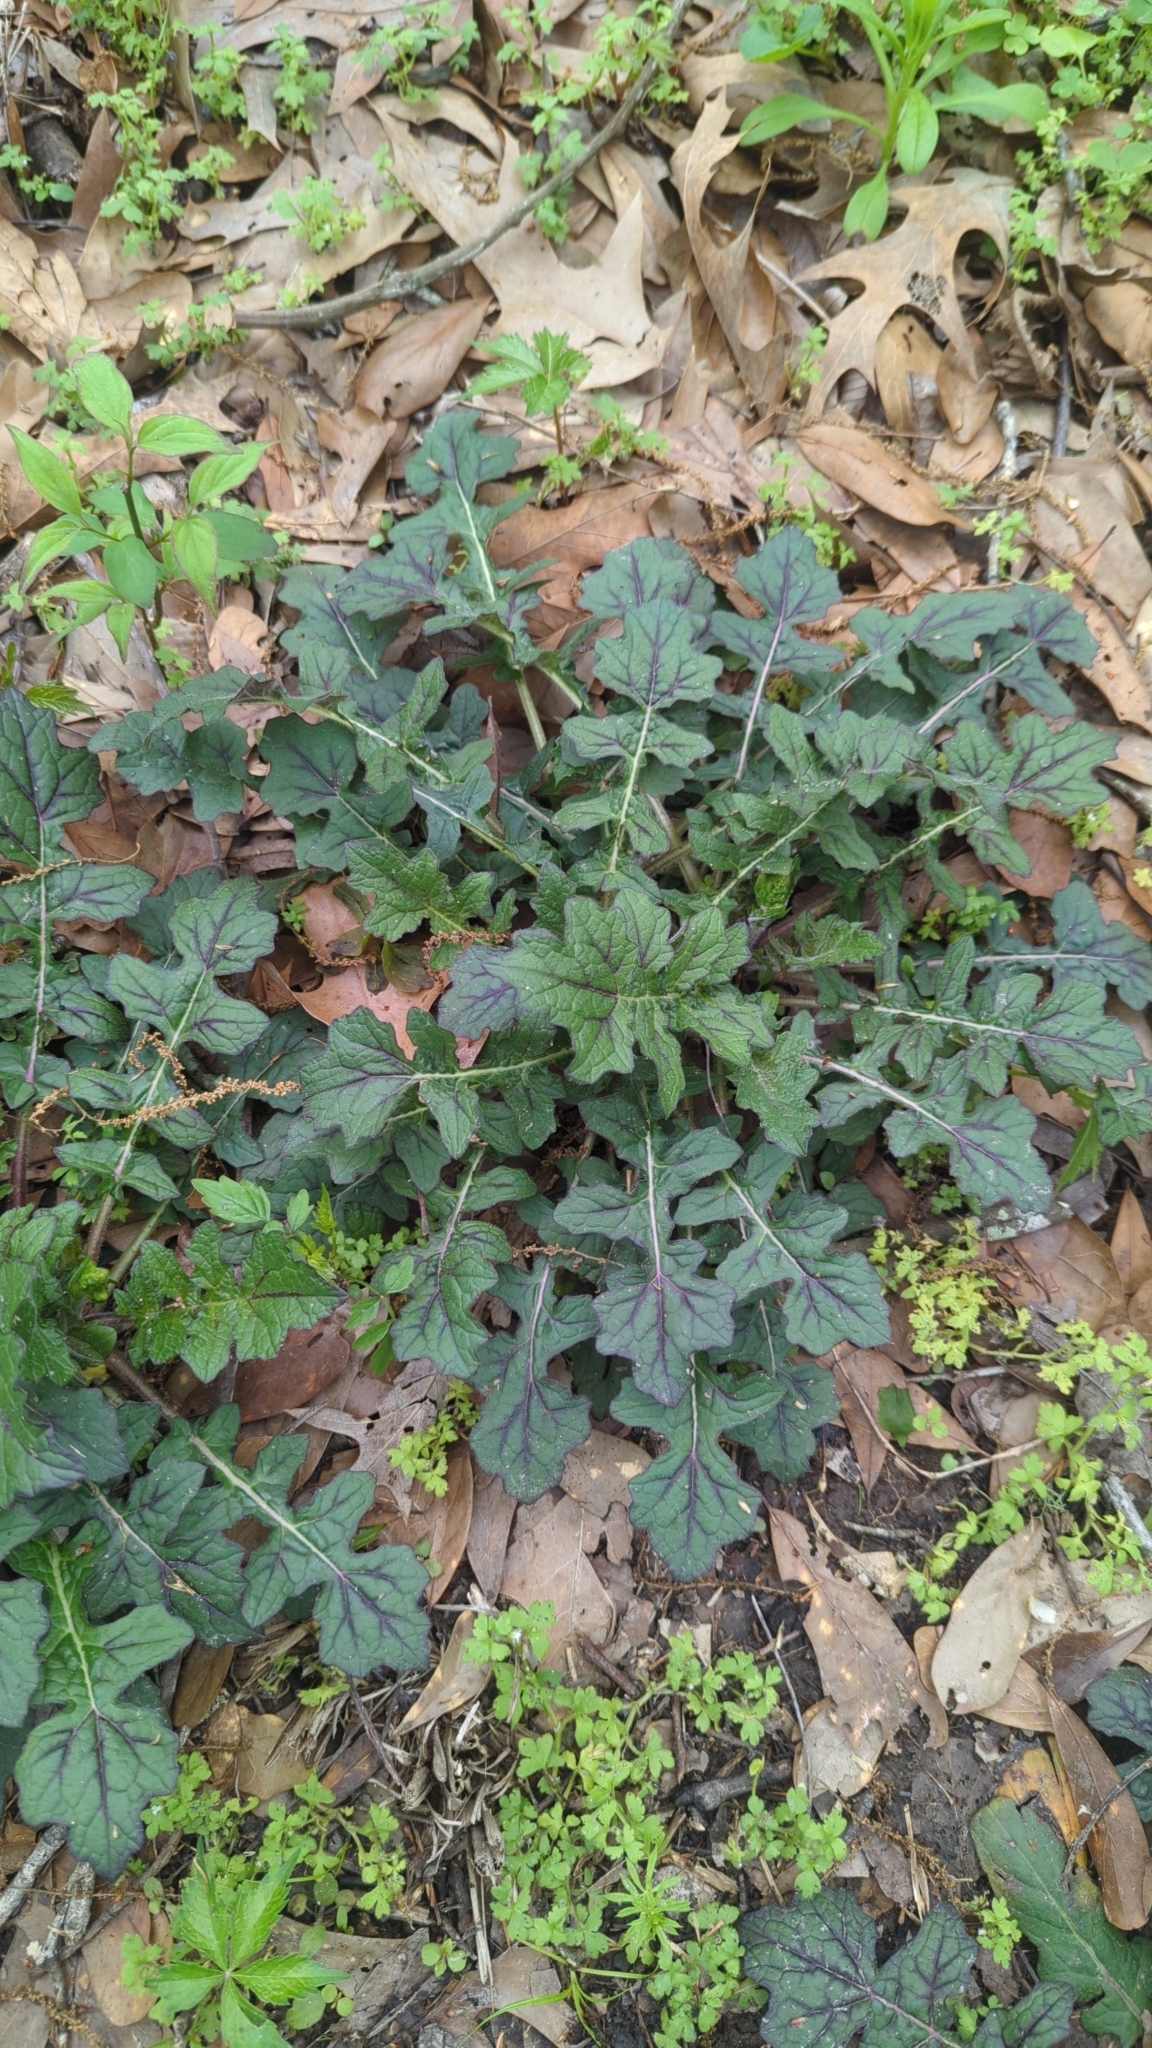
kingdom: Plantae
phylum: Tracheophyta
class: Magnoliopsida
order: Lamiales
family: Lamiaceae
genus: Salvia
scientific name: Salvia lyrata
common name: Cancerweed
